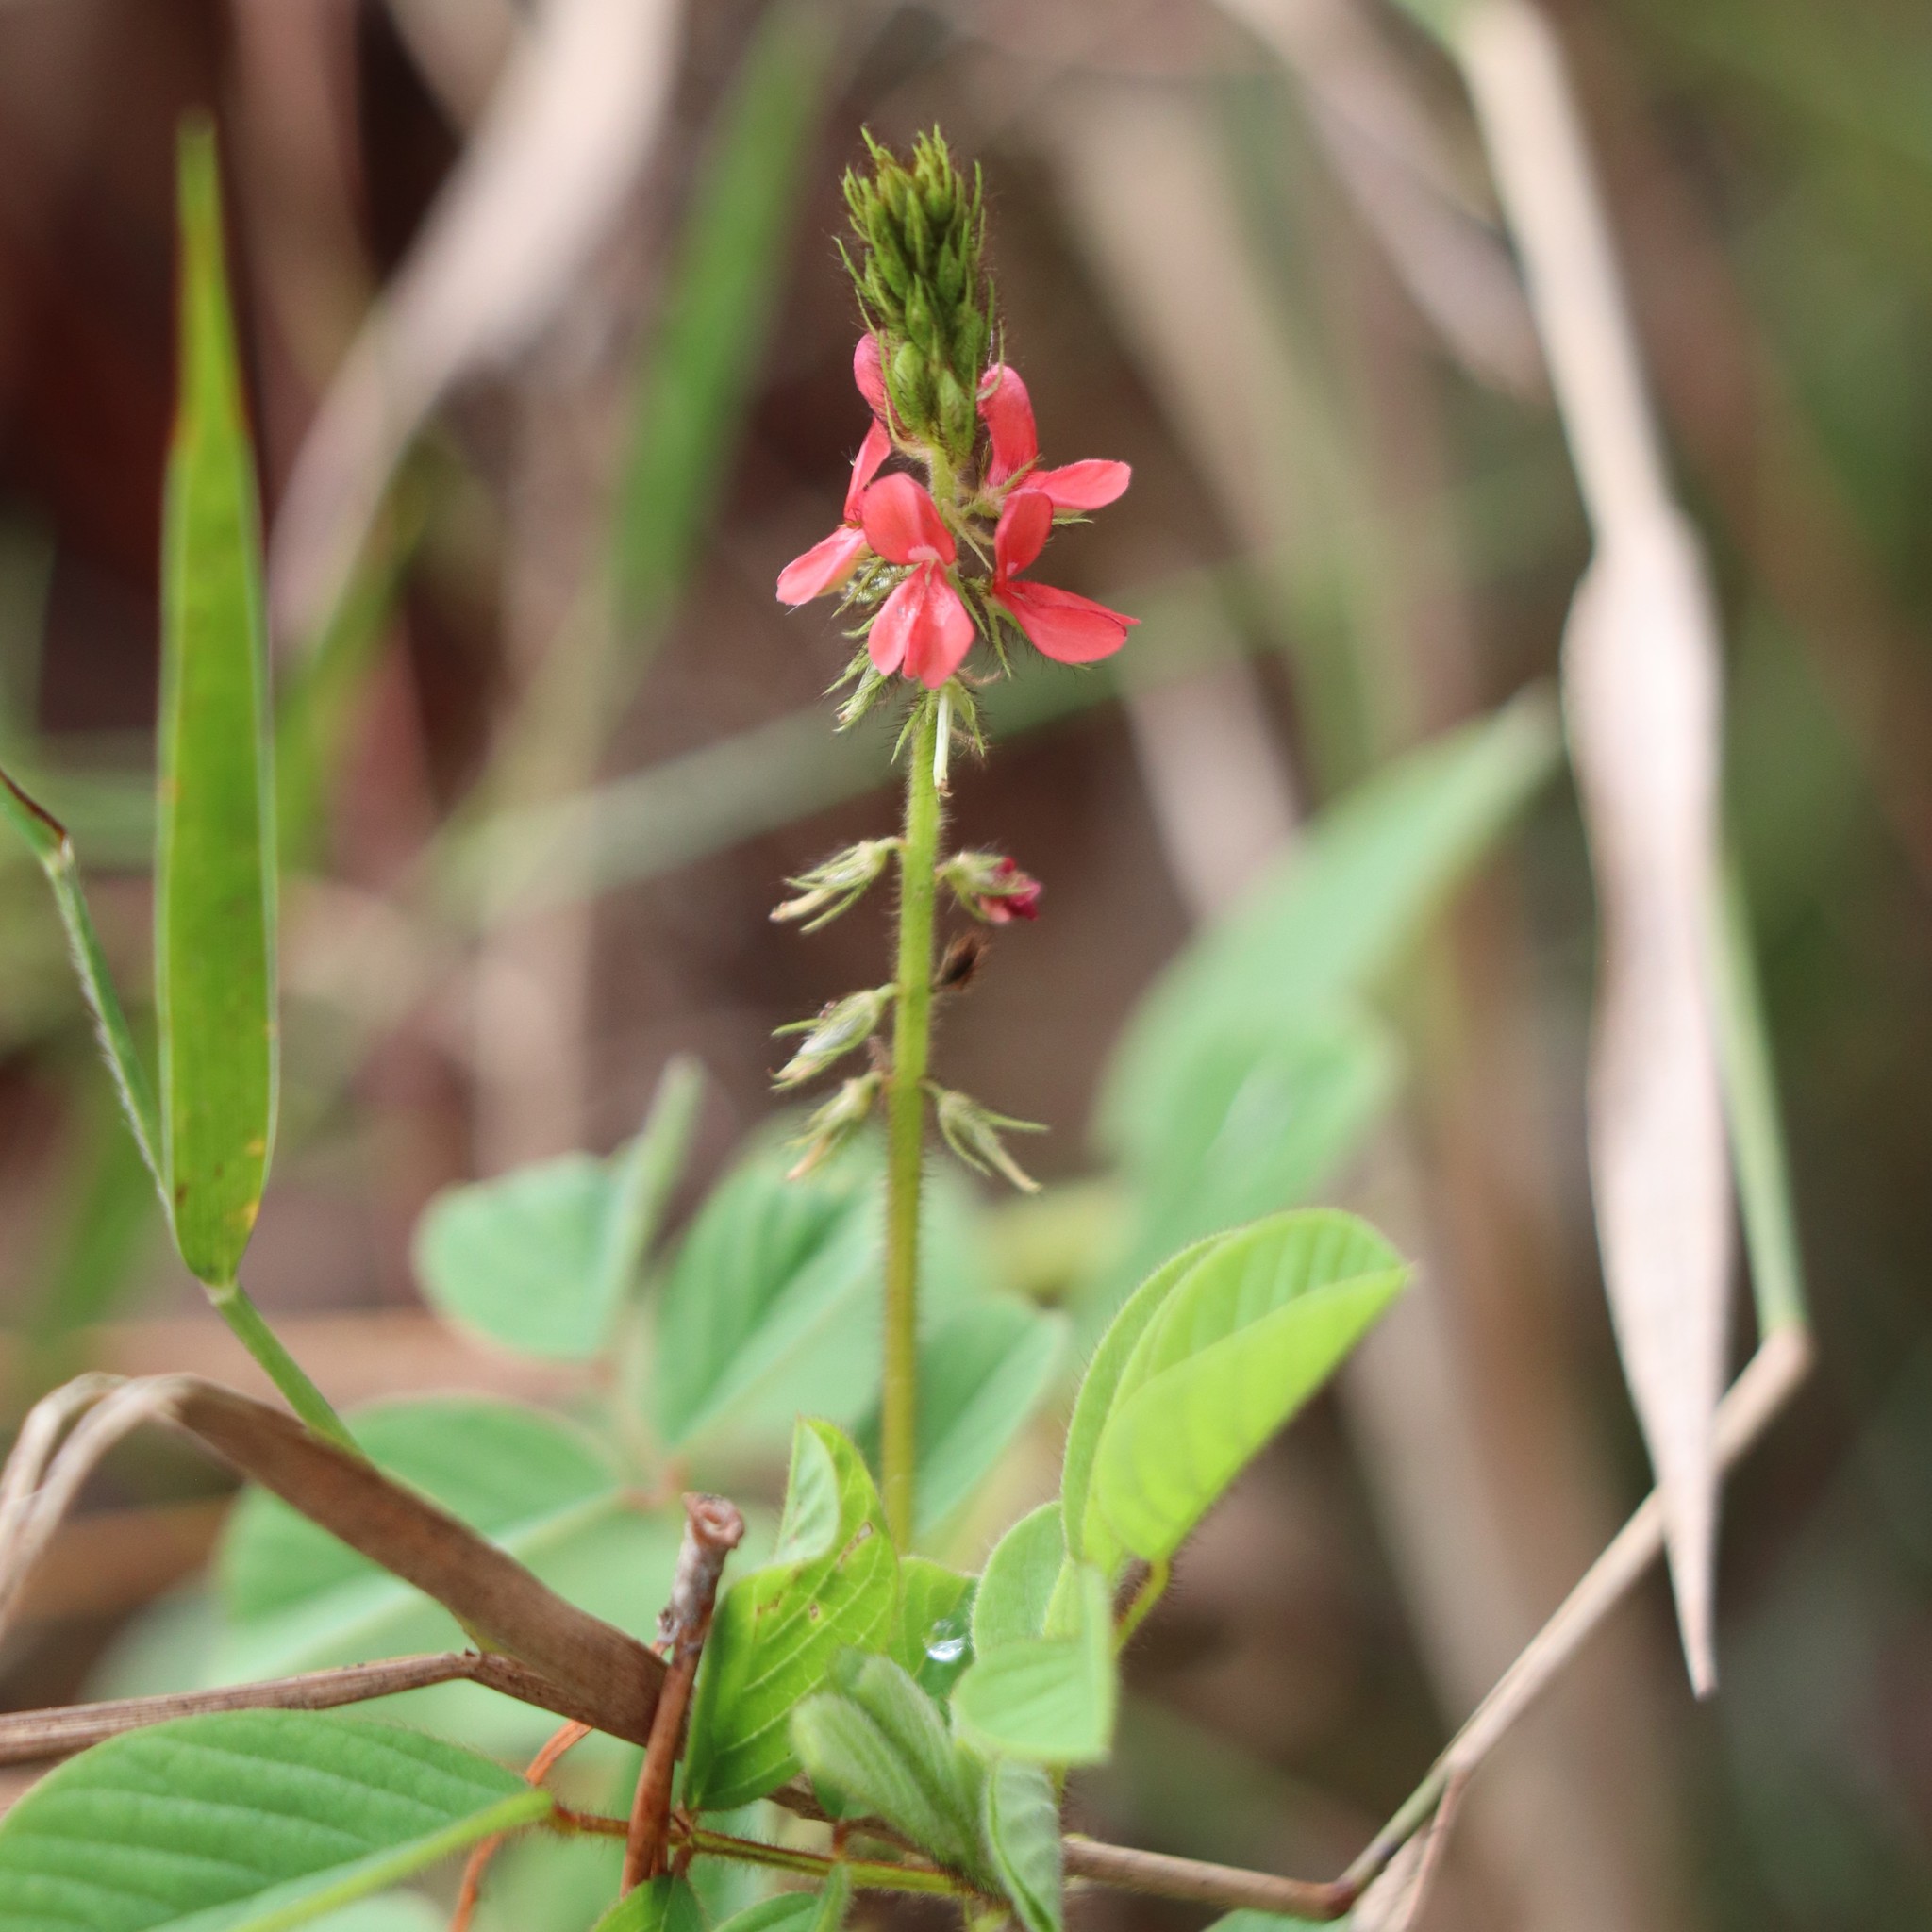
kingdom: Plantae
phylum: Tracheophyta
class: Magnoliopsida
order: Fabales
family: Fabaceae
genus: Indigofera
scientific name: Indigofera hirsuta
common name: Hairy indigo
